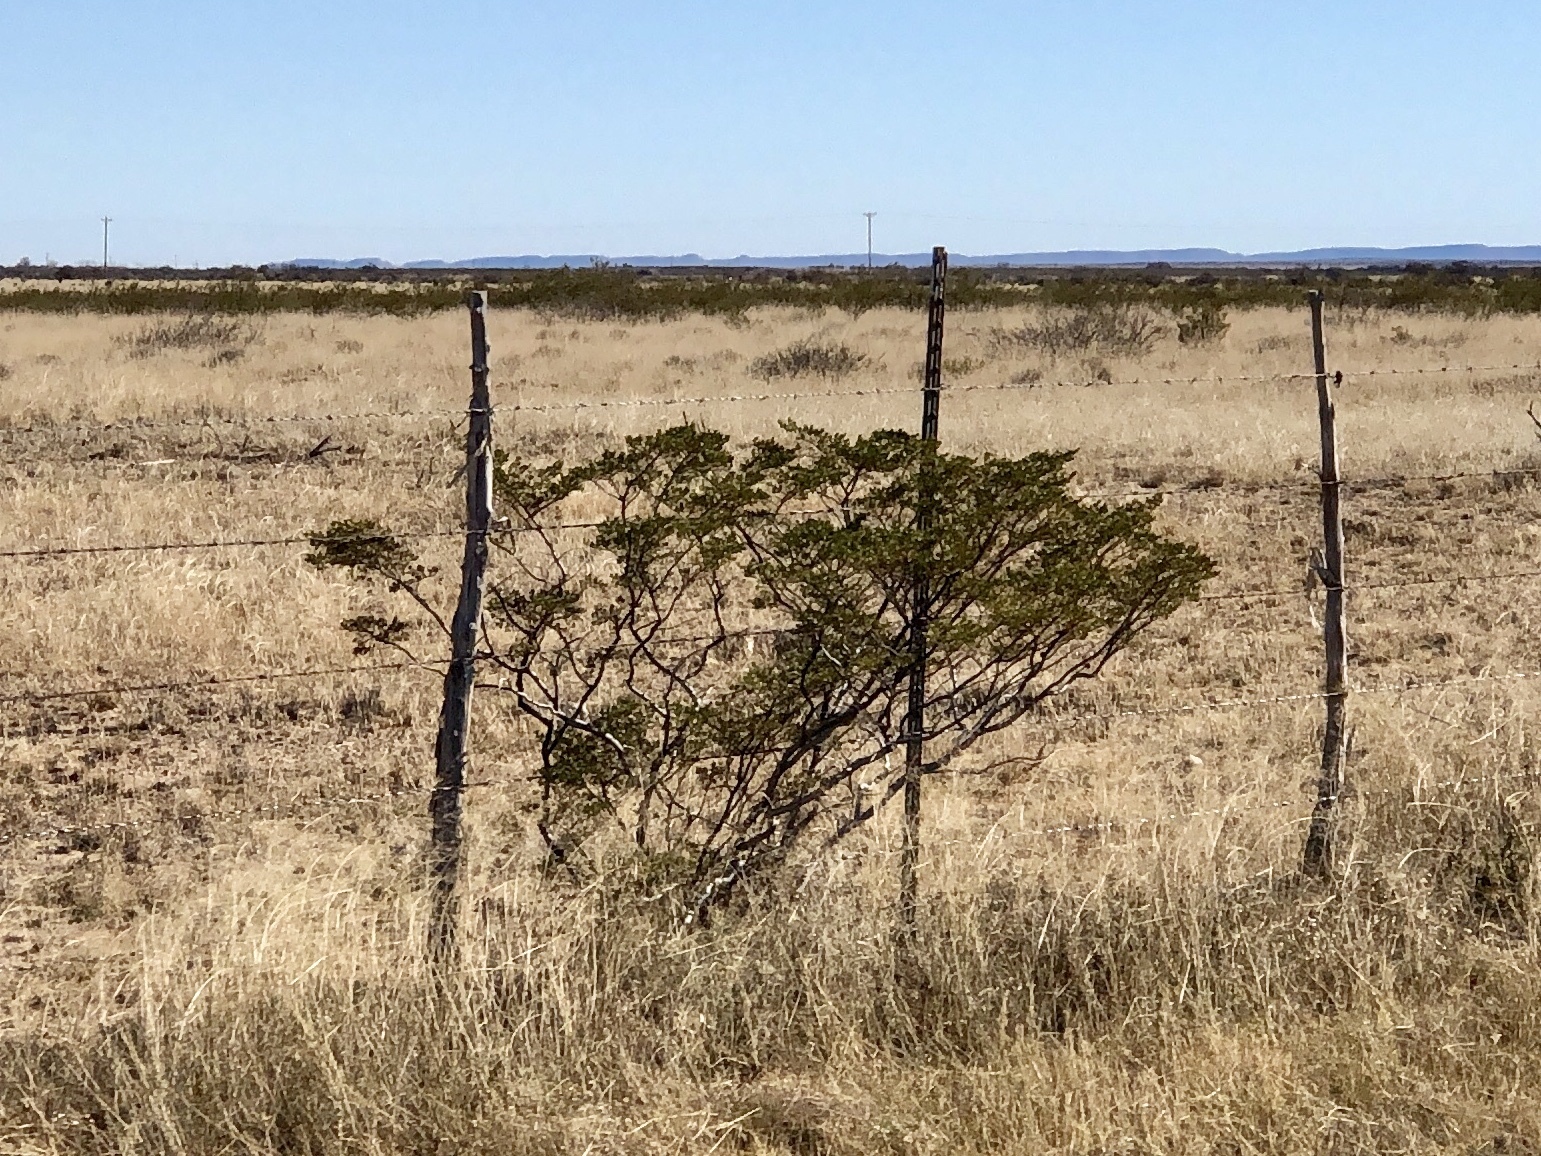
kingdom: Plantae
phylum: Tracheophyta
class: Magnoliopsida
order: Zygophyllales
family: Zygophyllaceae
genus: Larrea
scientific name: Larrea tridentata
